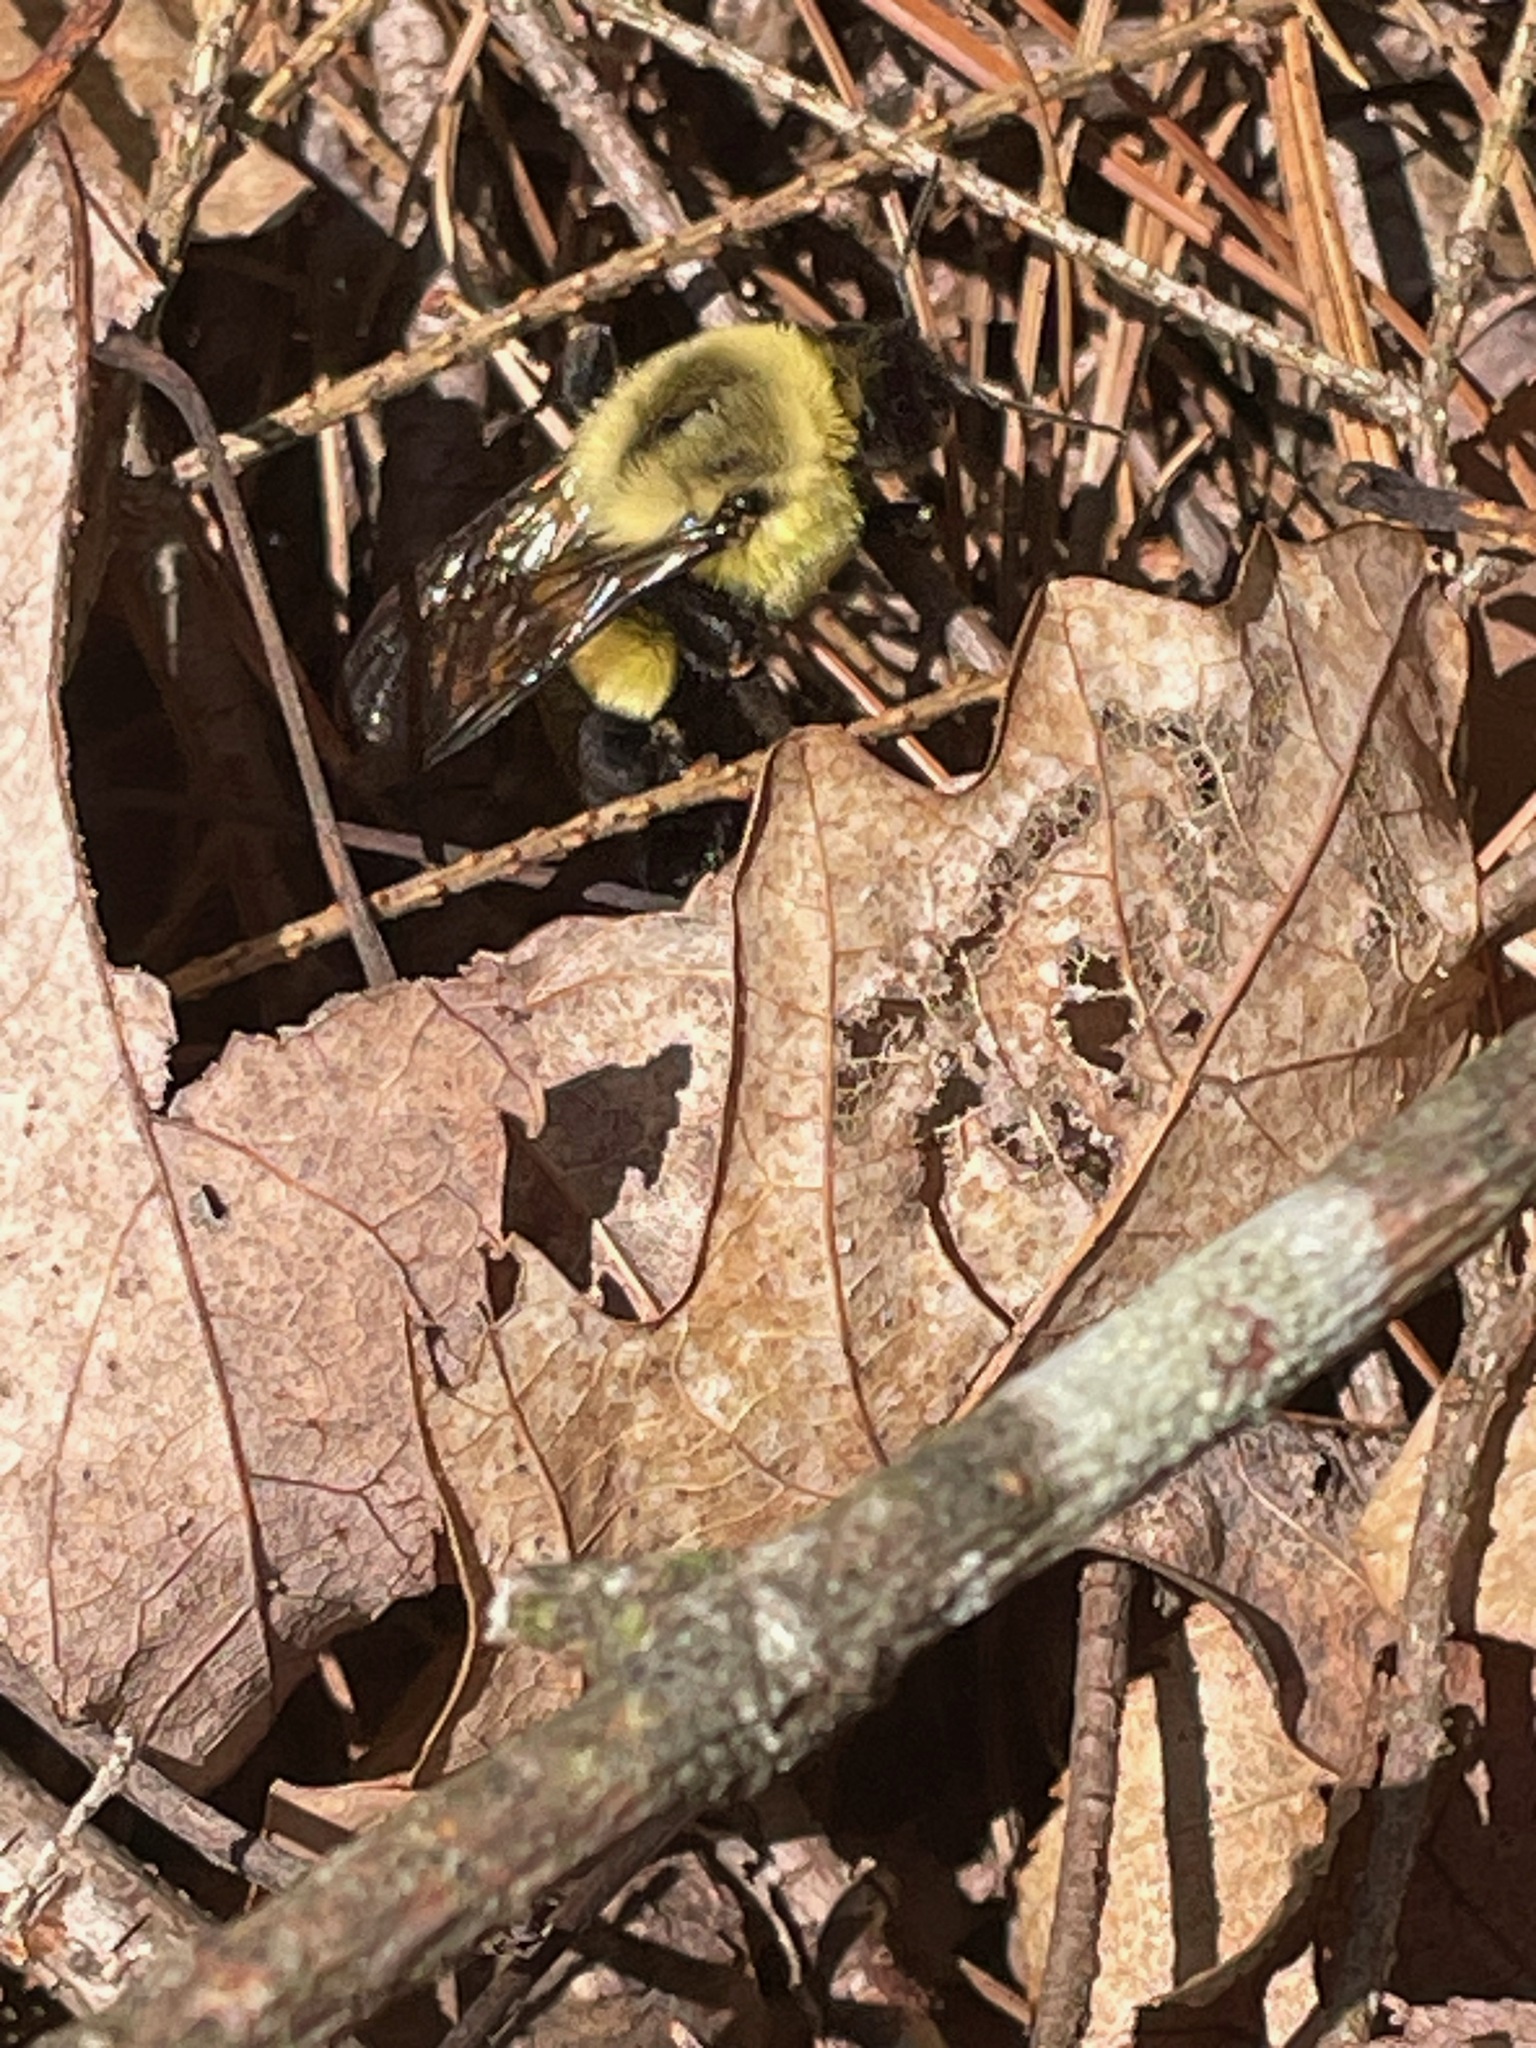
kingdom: Animalia
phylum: Arthropoda
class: Insecta
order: Hymenoptera
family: Apidae
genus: Bombus
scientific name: Bombus impatiens
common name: Common eastern bumble bee
